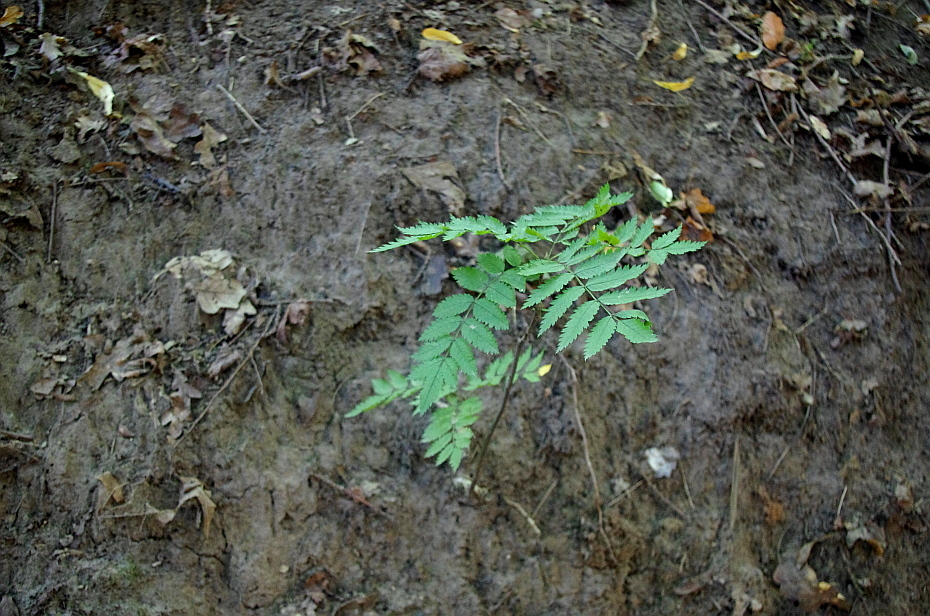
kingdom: Plantae
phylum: Tracheophyta
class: Magnoliopsida
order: Rosales
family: Rosaceae
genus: Sorbus
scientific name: Sorbus aucuparia
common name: Rowan
